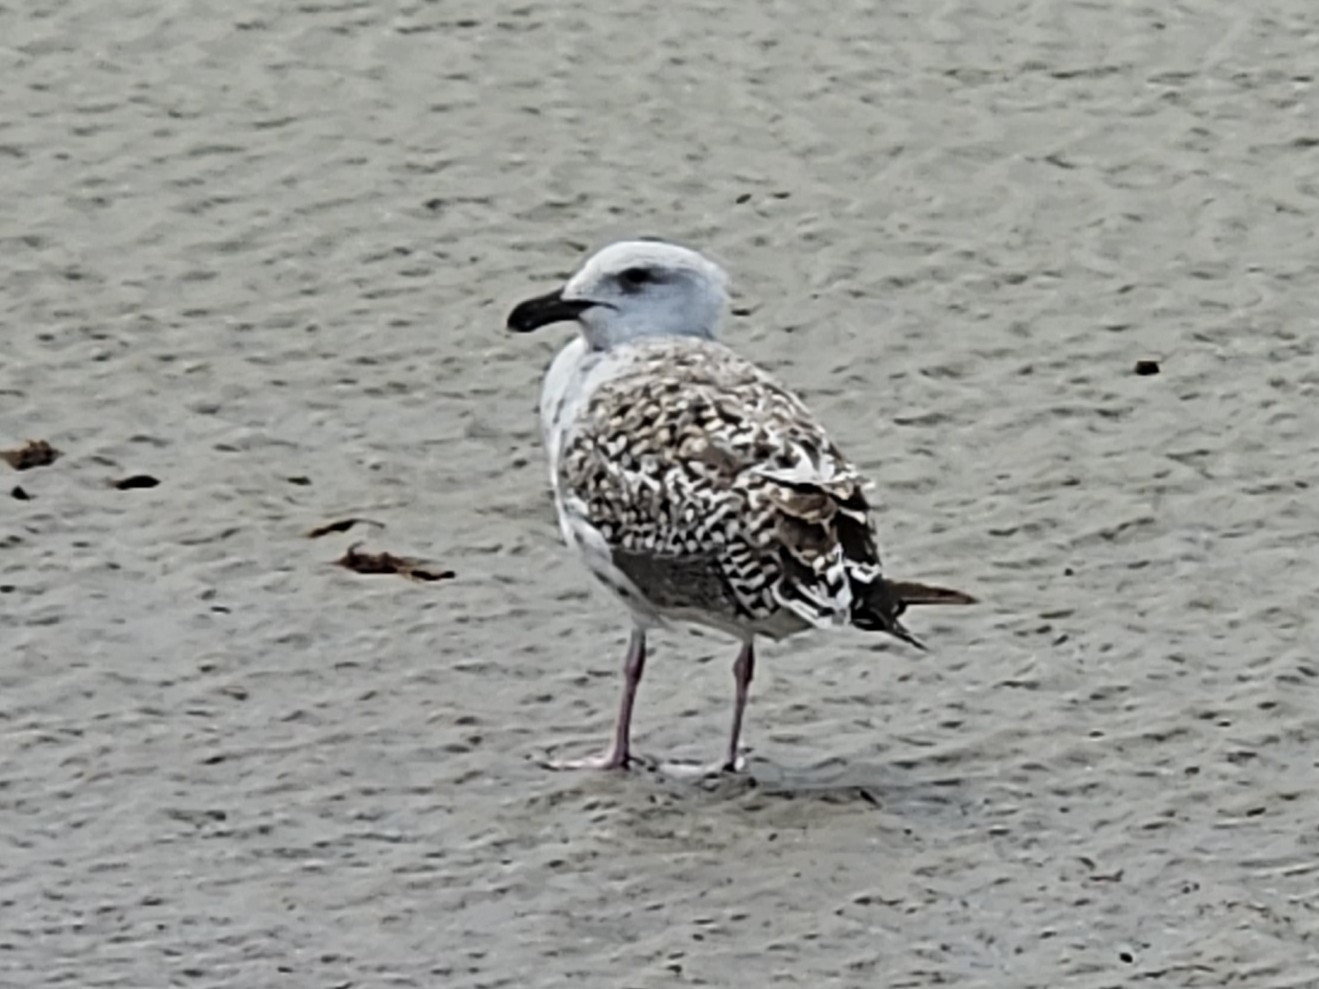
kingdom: Animalia
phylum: Chordata
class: Aves
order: Charadriiformes
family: Laridae
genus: Larus
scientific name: Larus marinus
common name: Great black-backed gull
